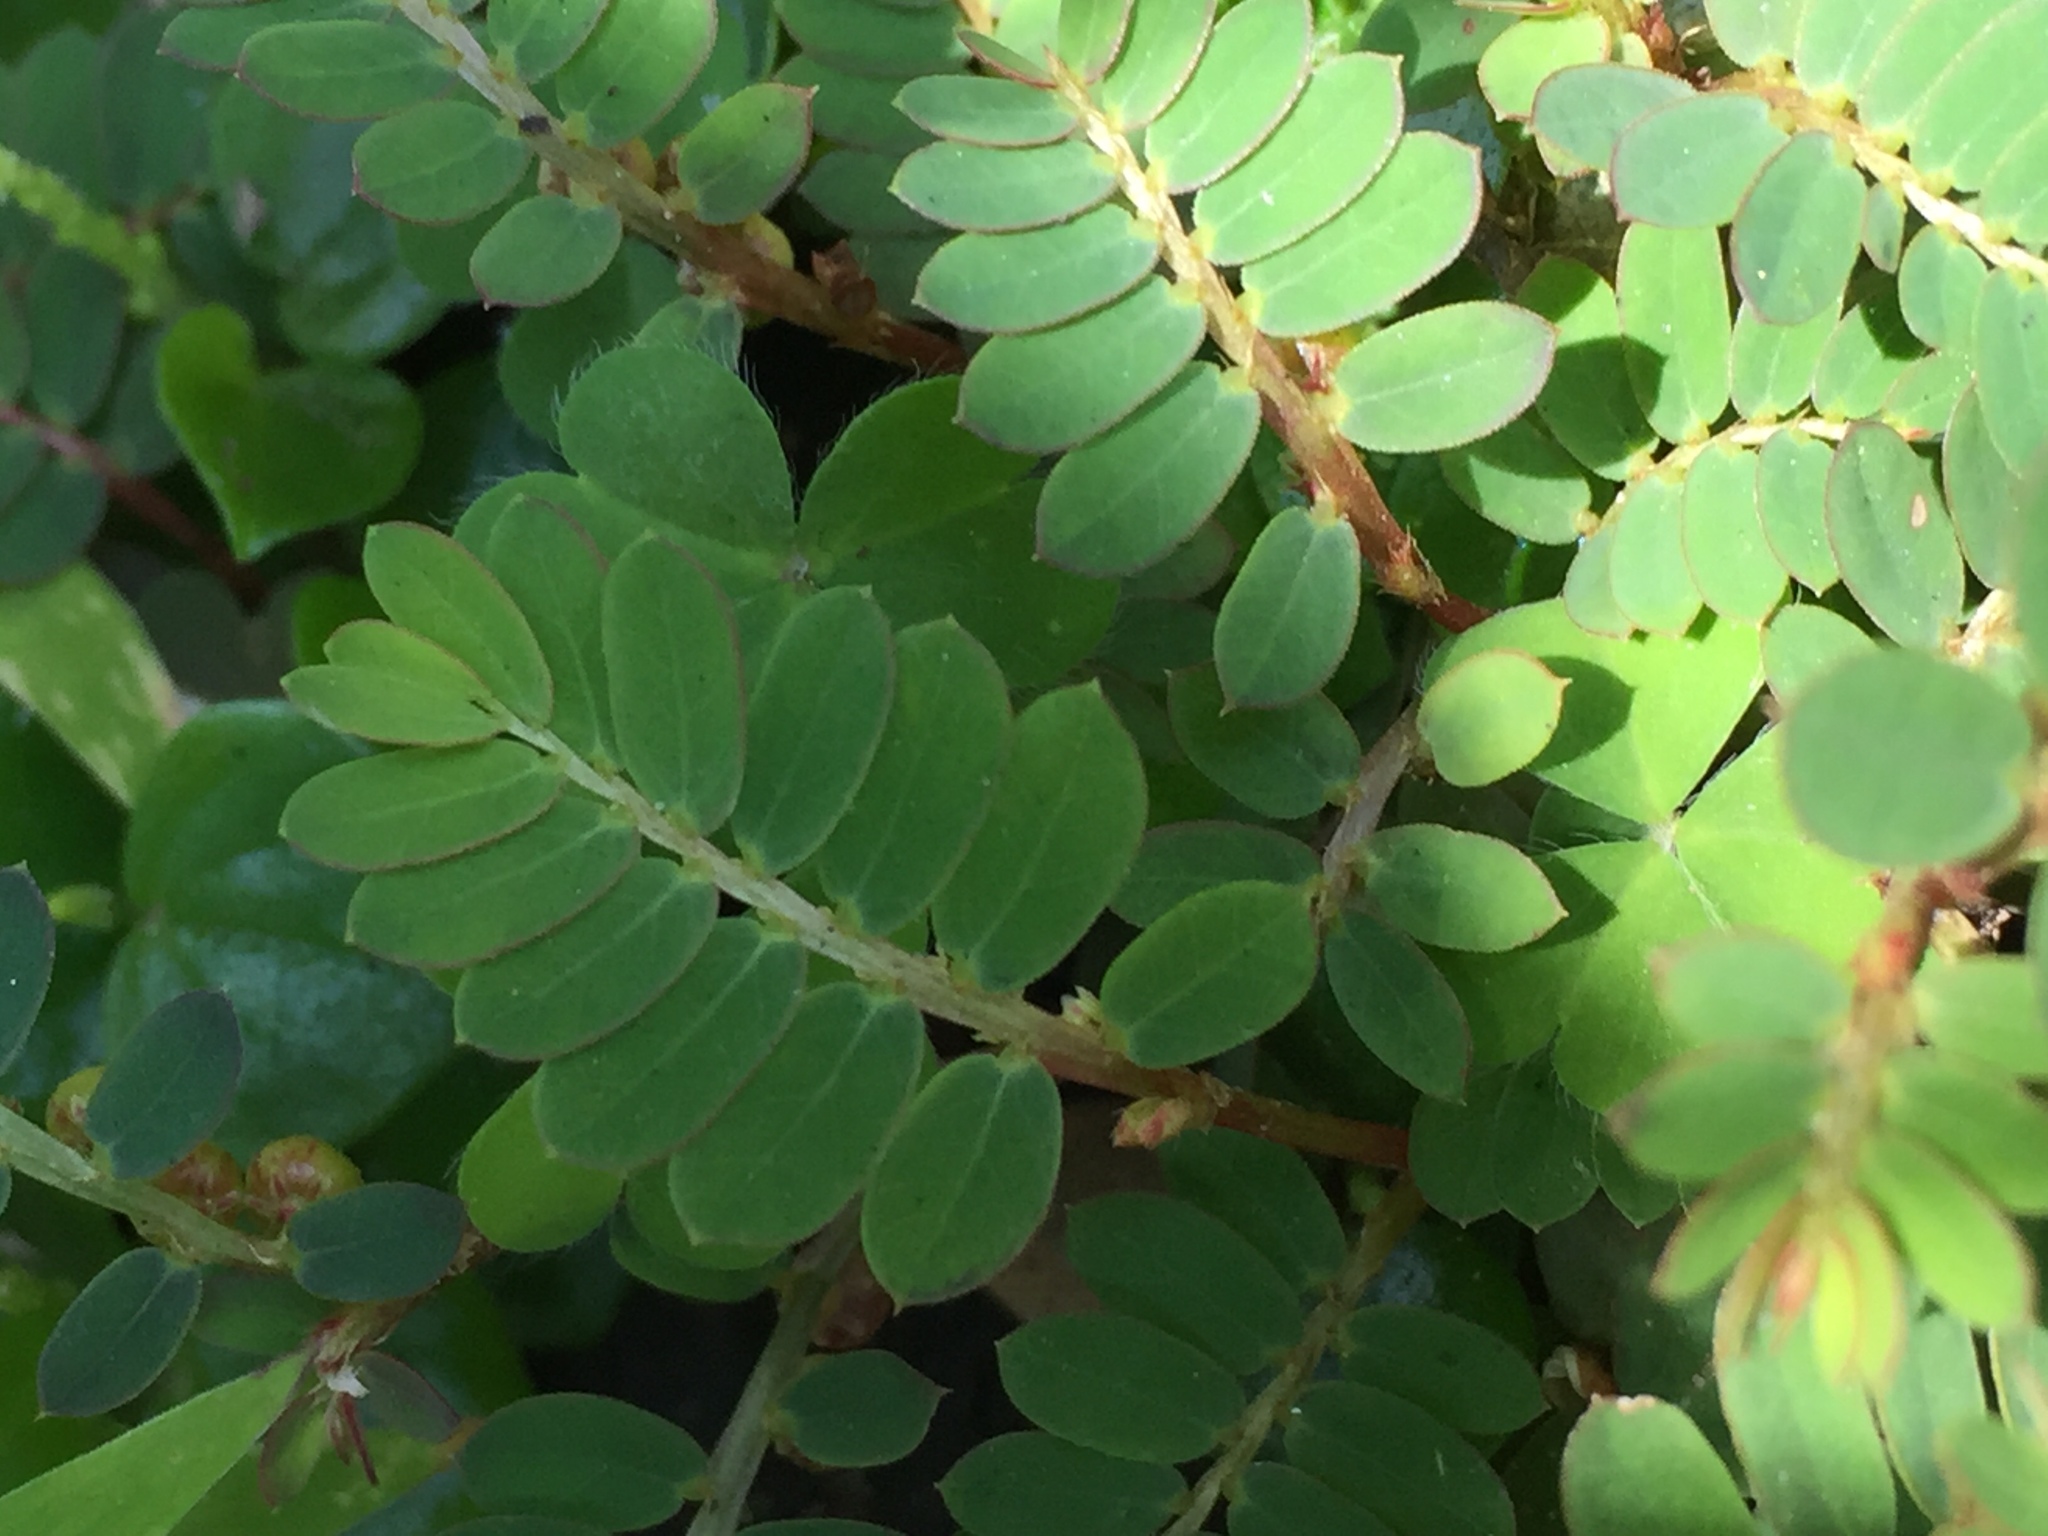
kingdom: Plantae
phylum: Tracheophyta
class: Magnoliopsida
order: Malpighiales
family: Phyllanthaceae
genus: Phyllanthus
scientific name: Phyllanthus urinaria
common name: Chamber bitter
